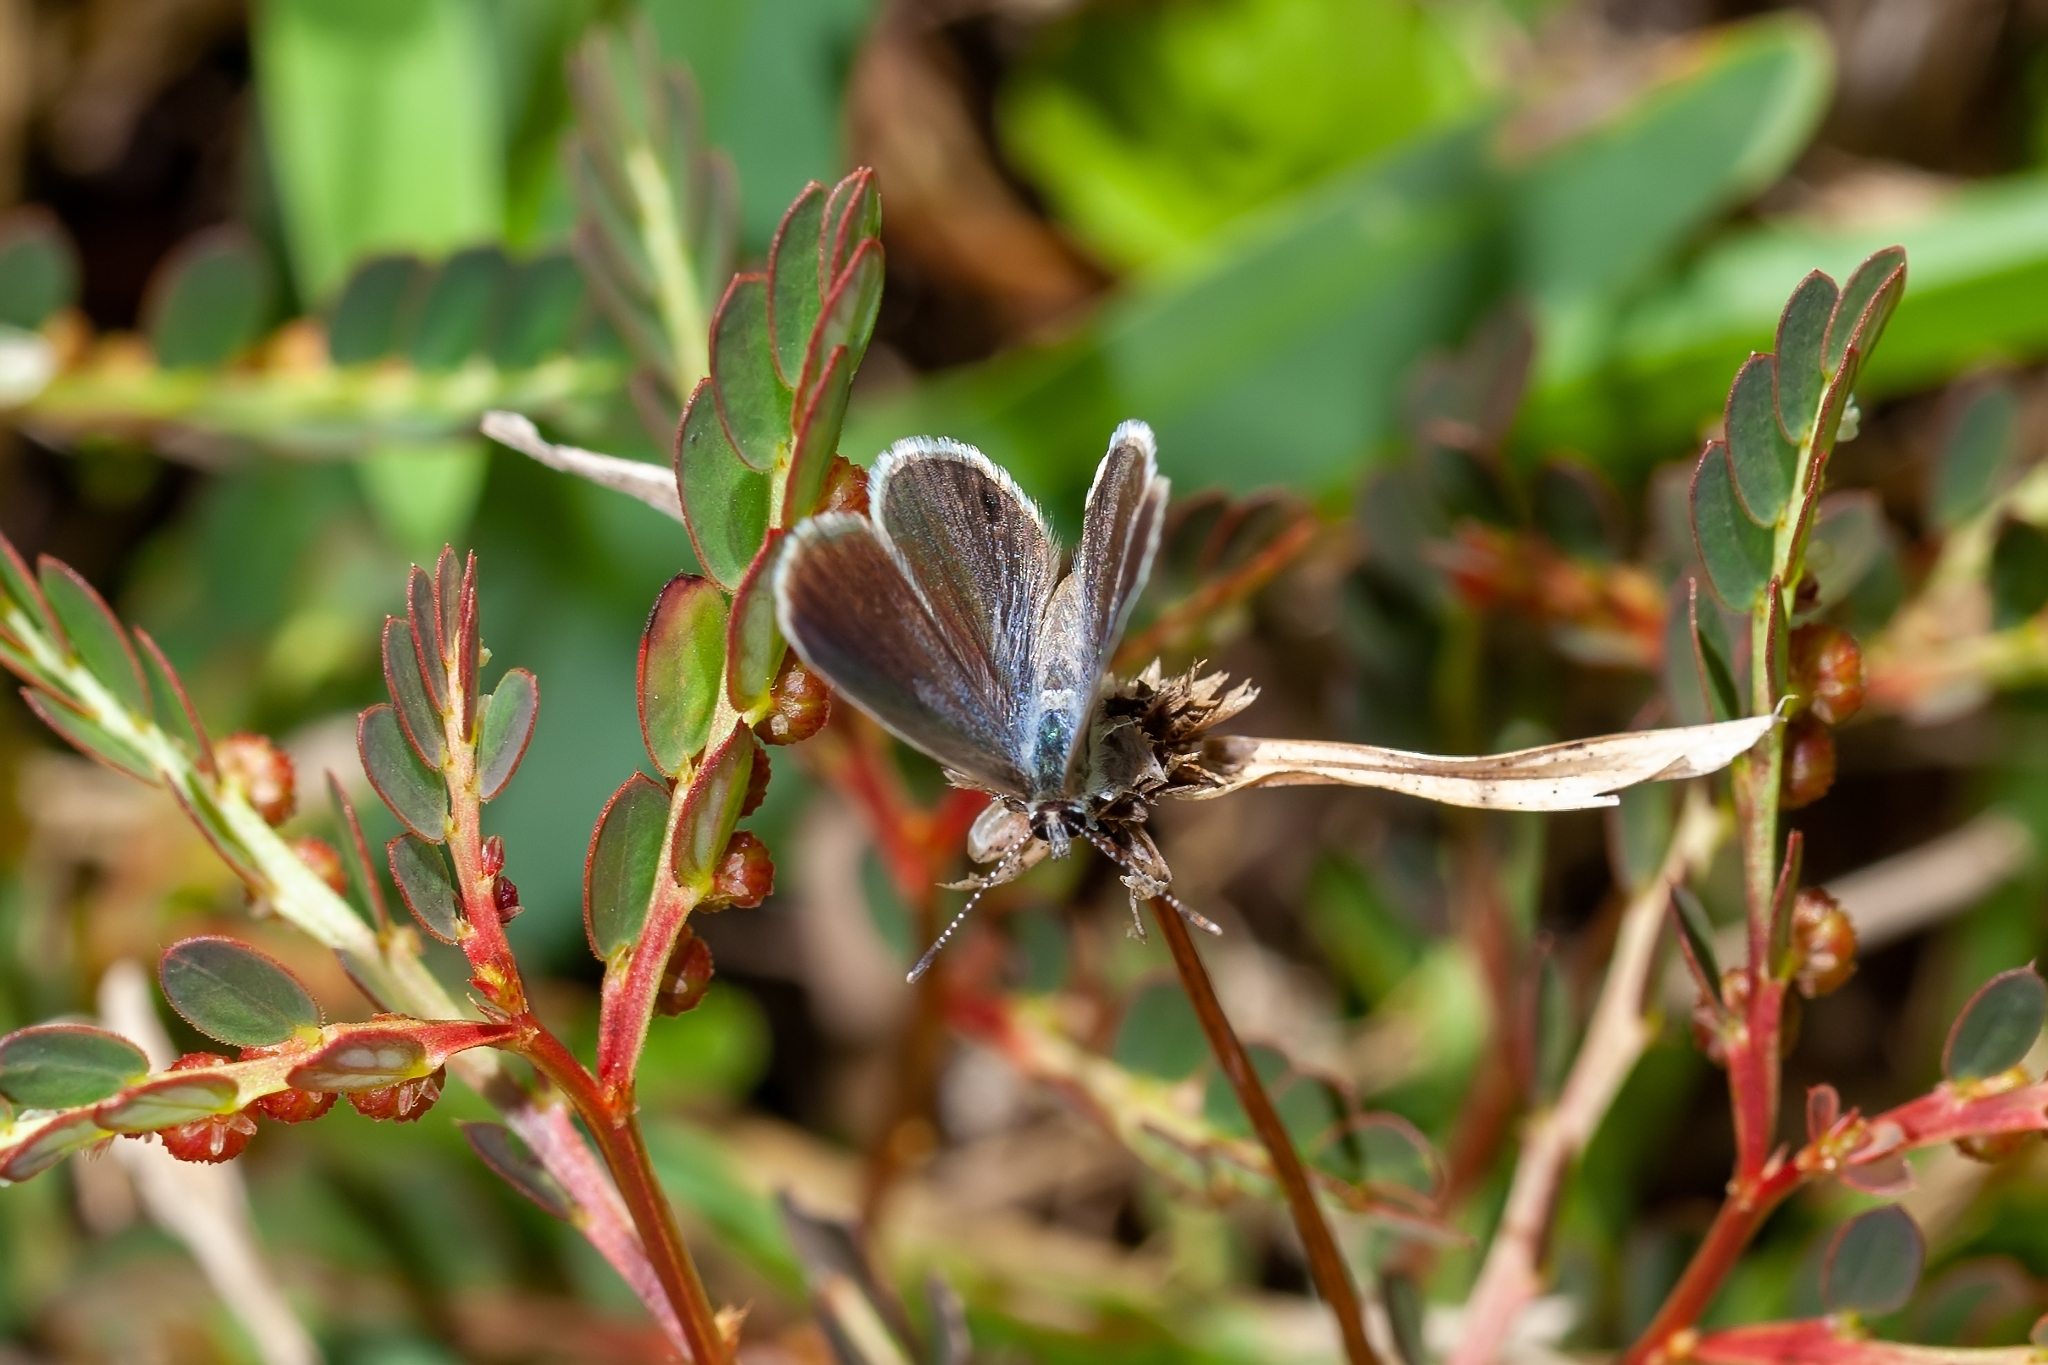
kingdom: Animalia
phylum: Arthropoda
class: Insecta
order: Lepidoptera
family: Lycaenidae
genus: Hemiargus
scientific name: Hemiargus ceraunus
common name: Ceraunus blue
